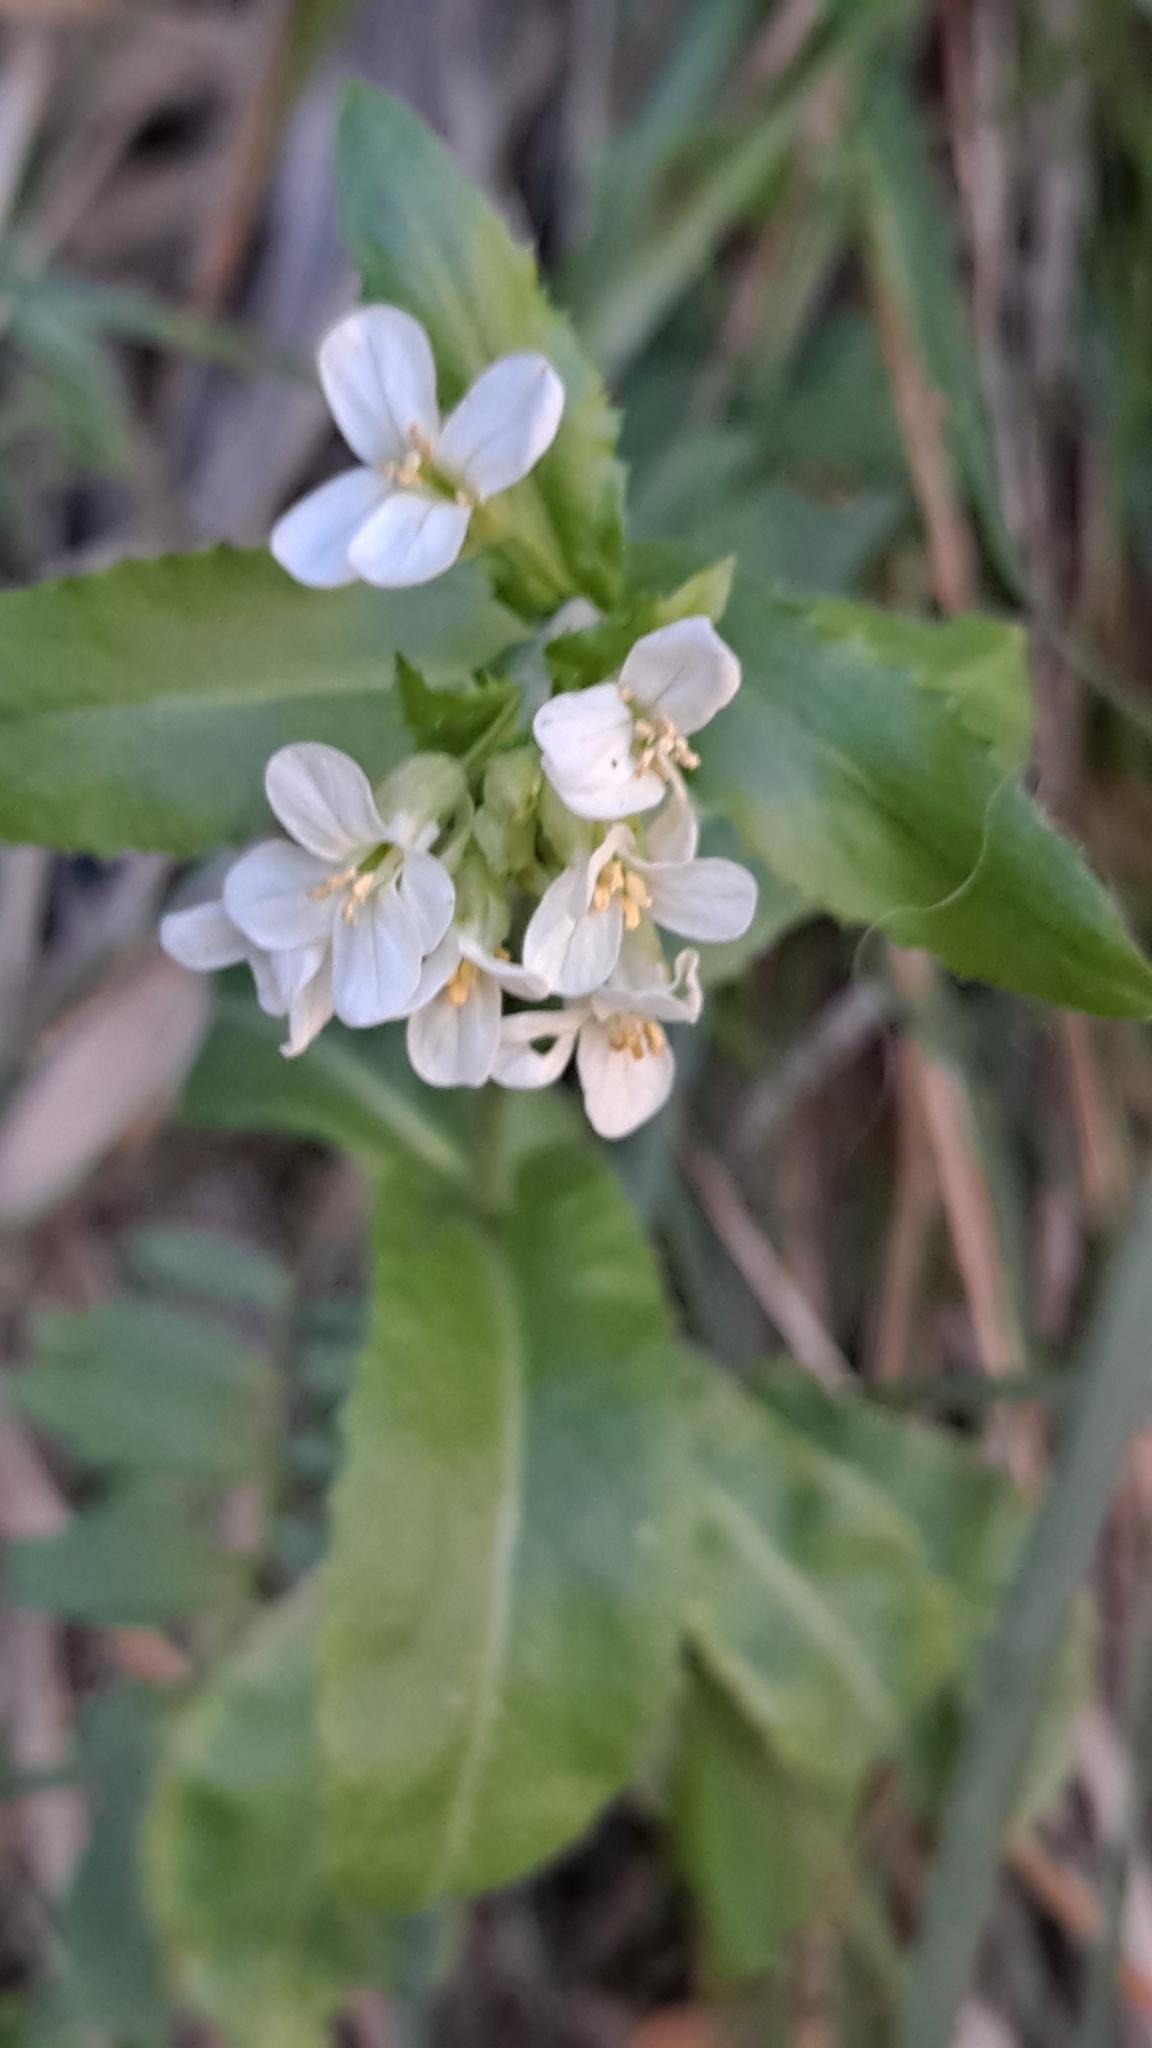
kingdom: Plantae
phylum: Tracheophyta
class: Magnoliopsida
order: Brassicales
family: Brassicaceae
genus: Pseudoturritis
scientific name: Pseudoturritis turrita
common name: Tower cress
